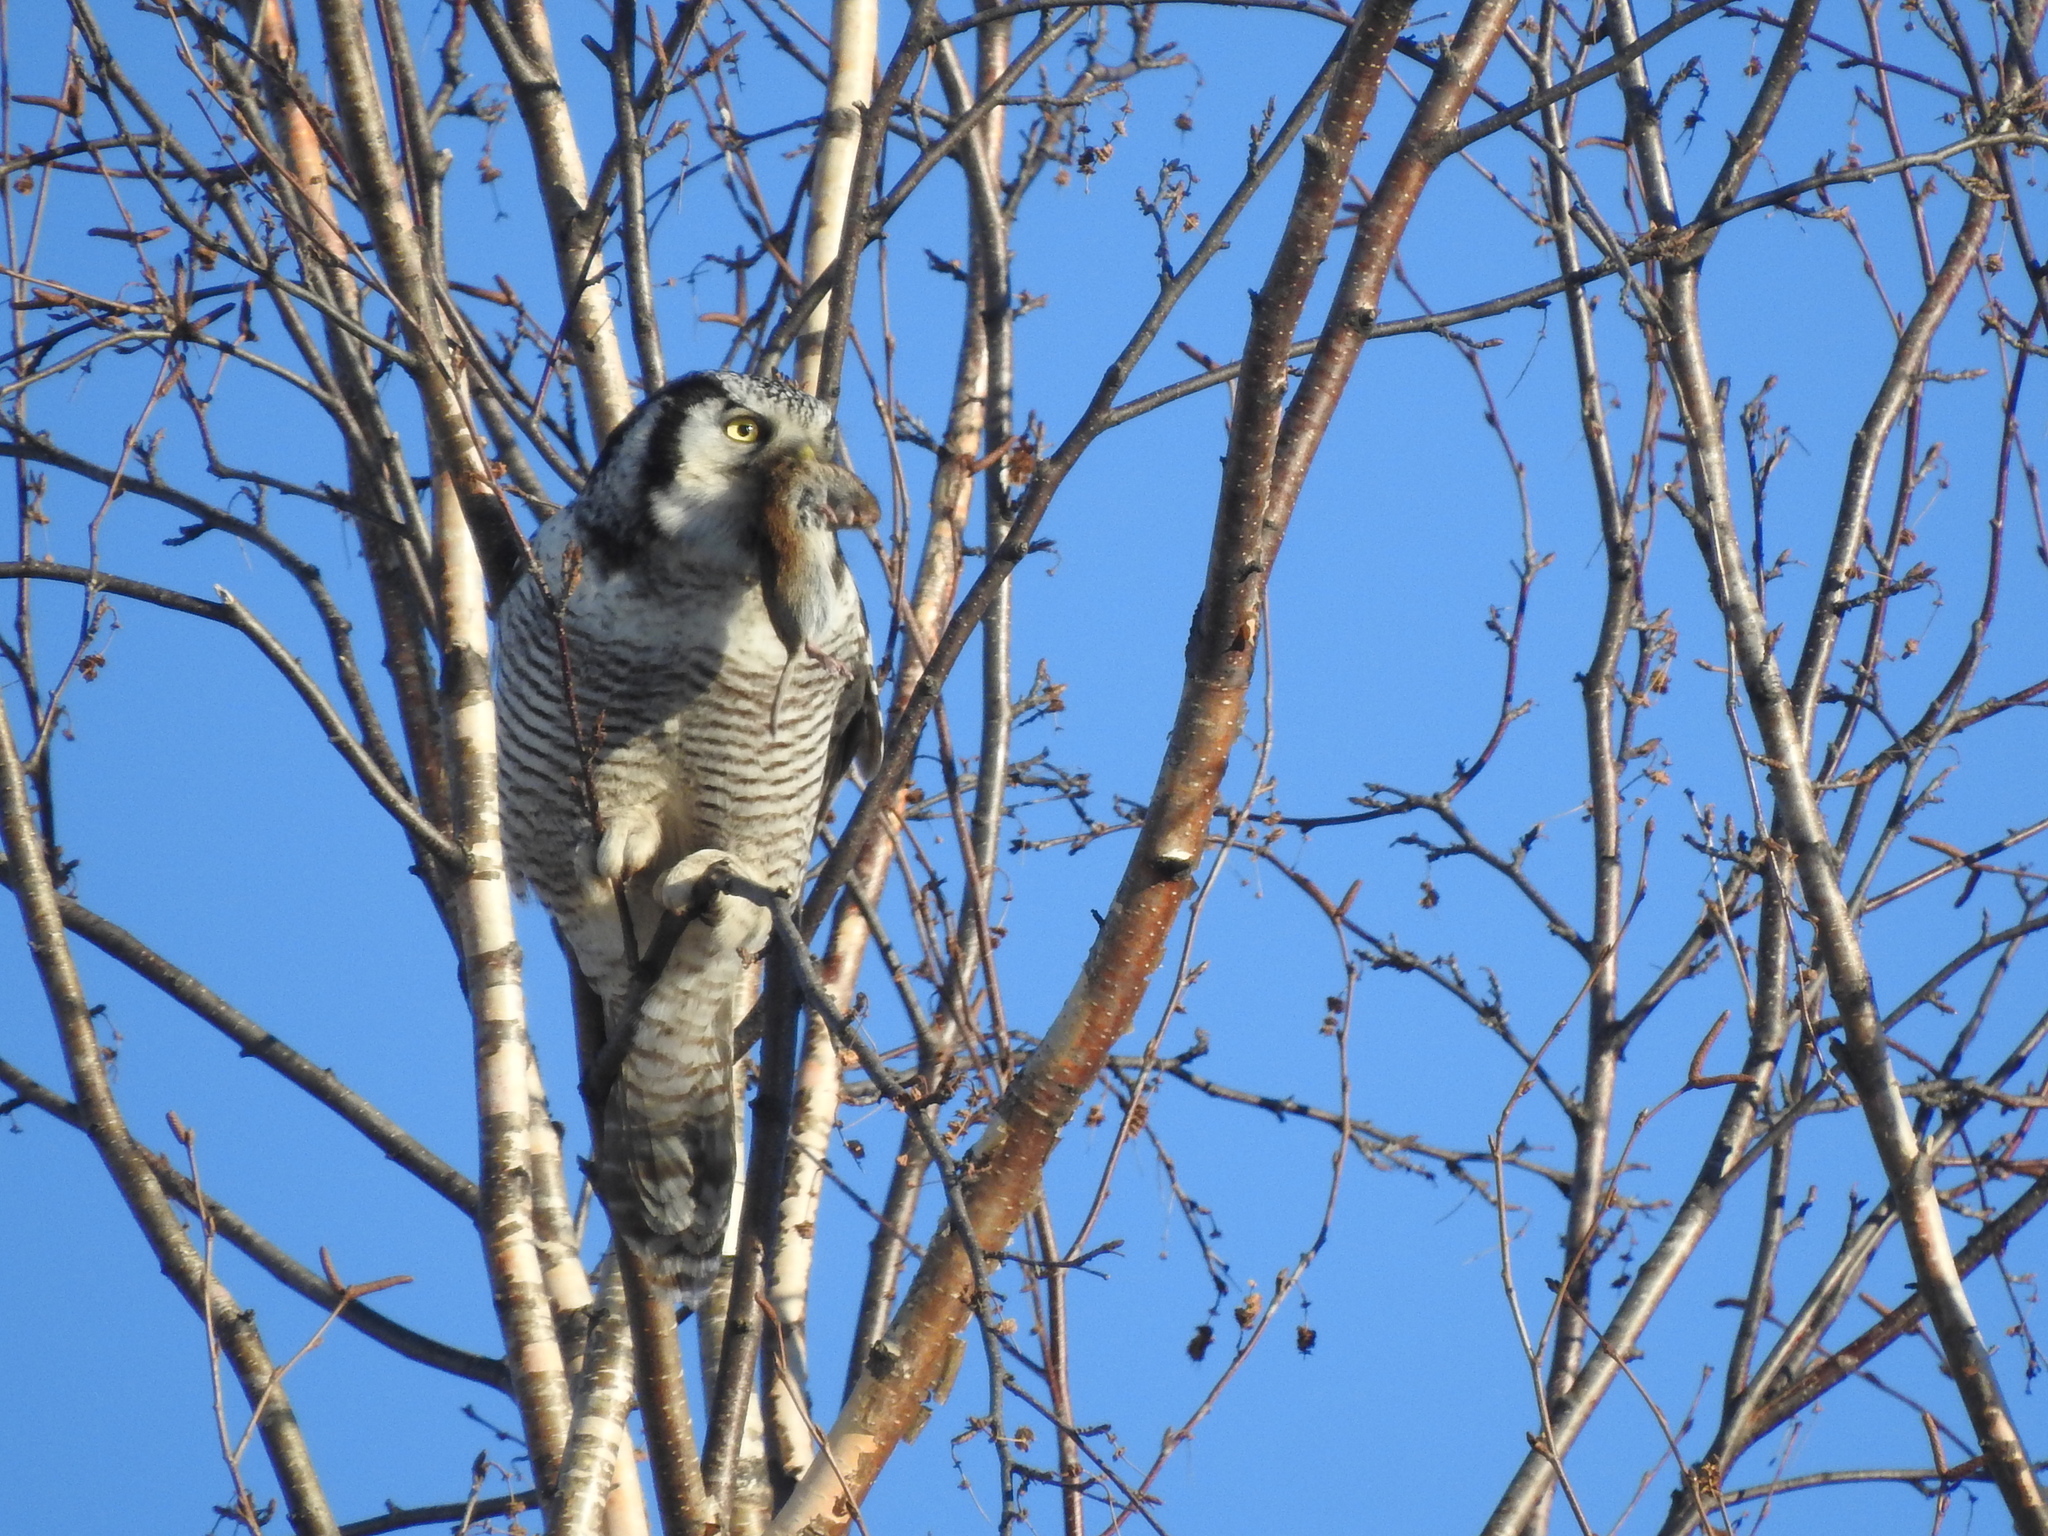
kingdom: Animalia
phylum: Chordata
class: Aves
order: Strigiformes
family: Strigidae
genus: Surnia
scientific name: Surnia ulula
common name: Northern hawk-owl
